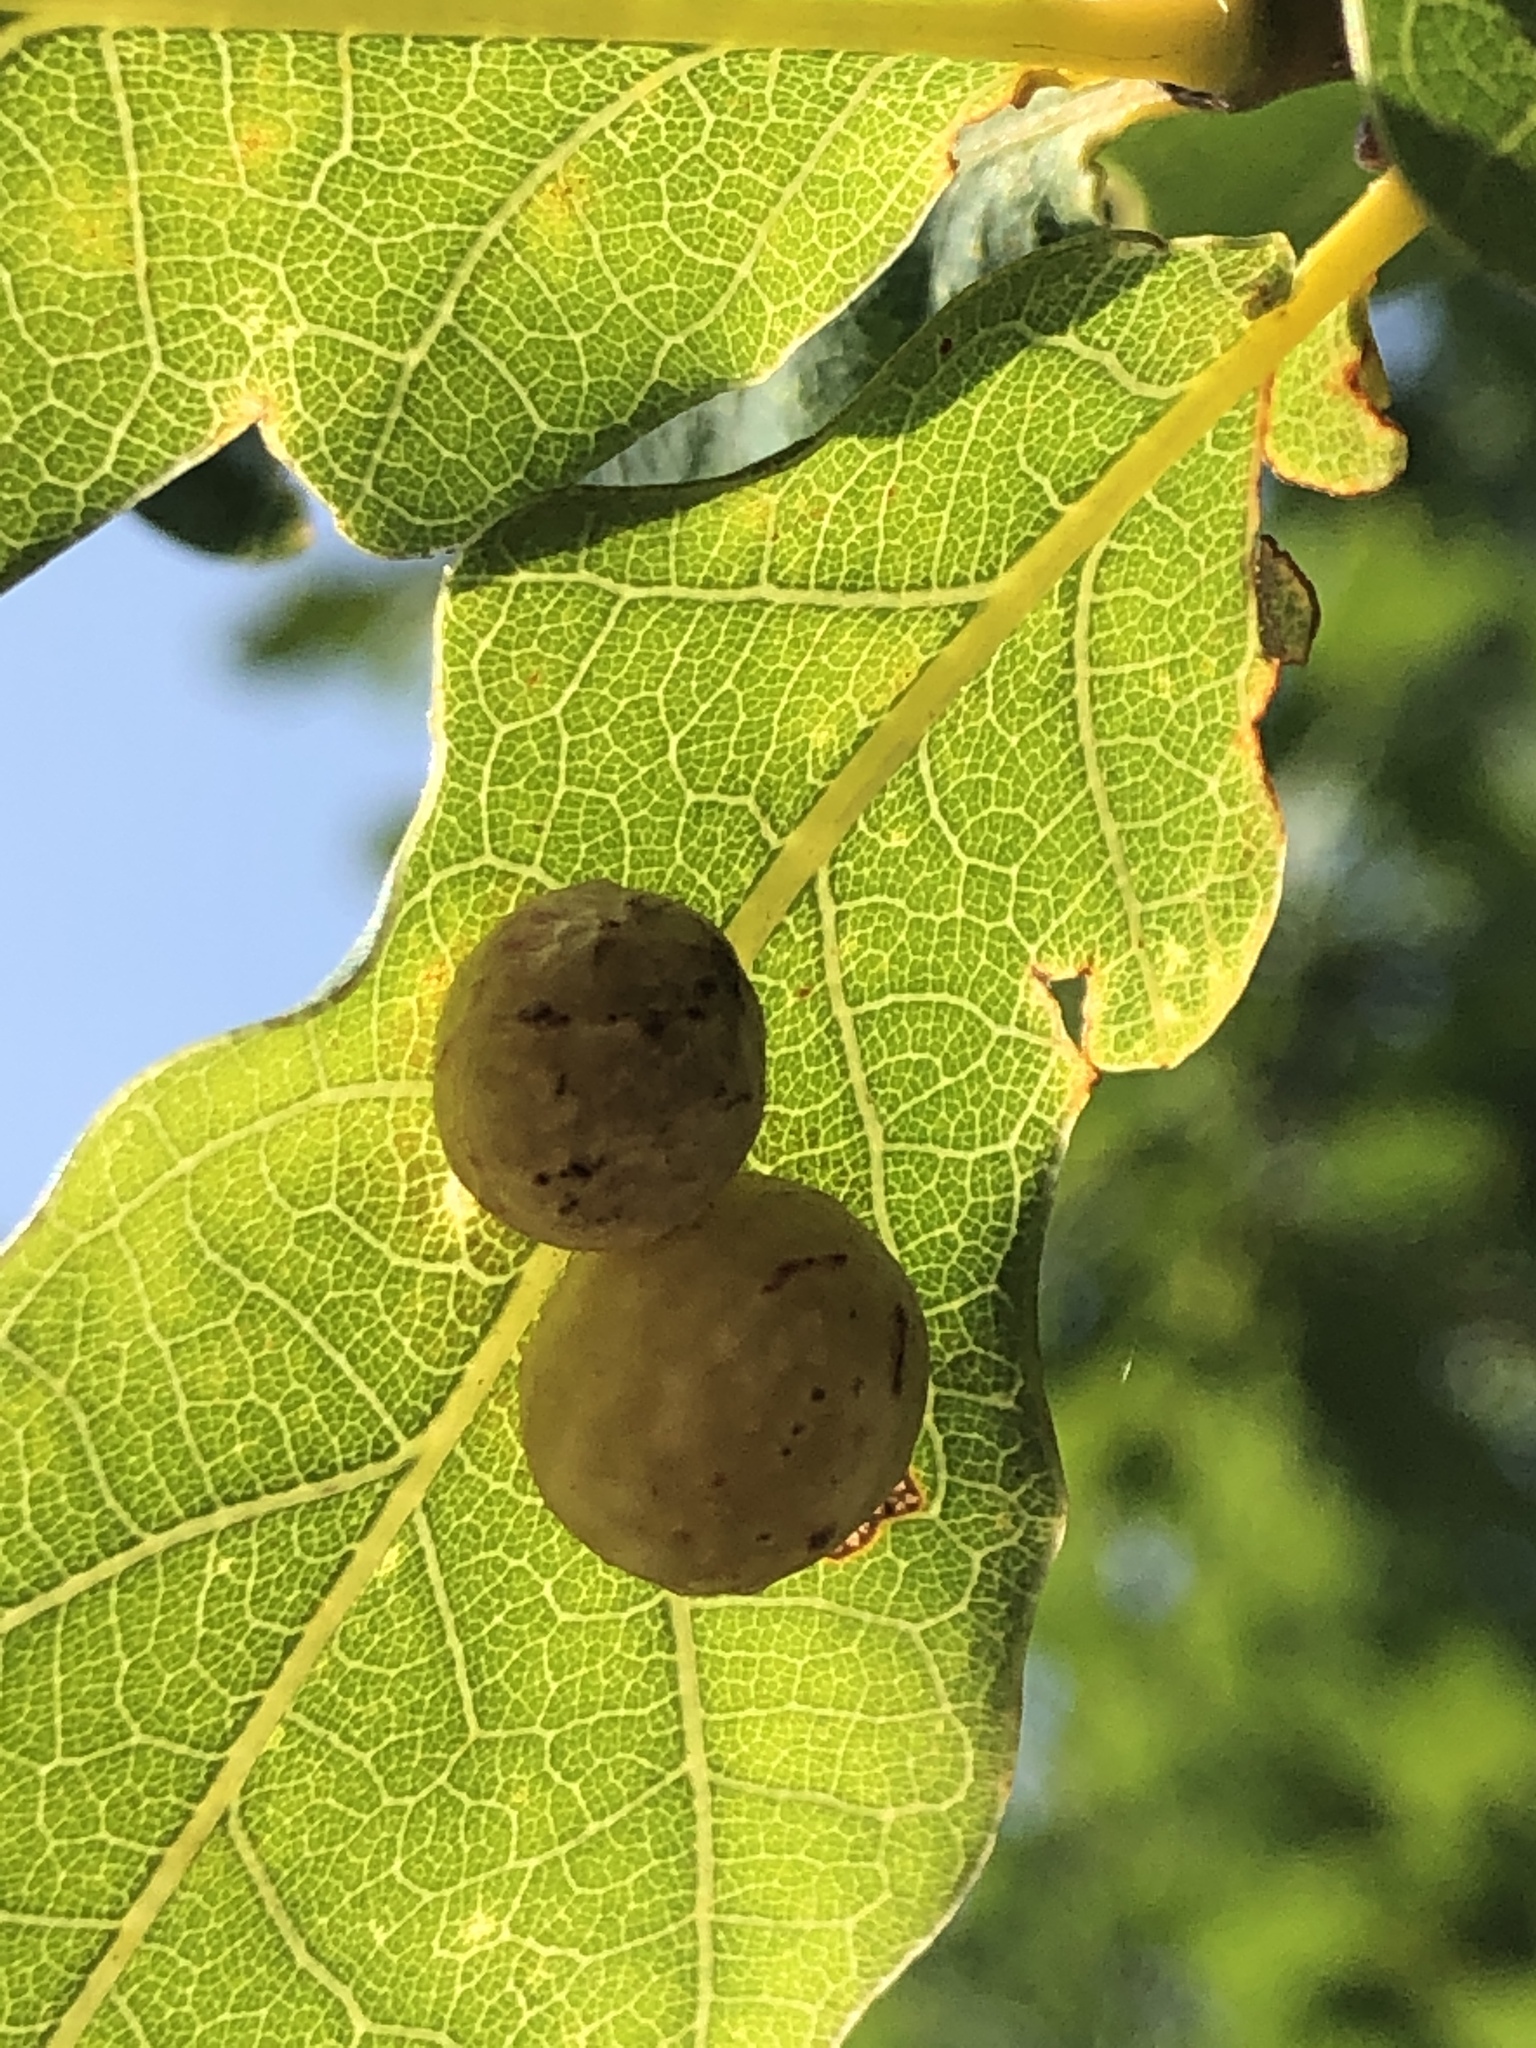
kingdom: Animalia
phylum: Arthropoda
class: Insecta
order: Hymenoptera
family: Cynipidae
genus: Cynips
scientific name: Cynips quercusfolii
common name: Cherry gall
